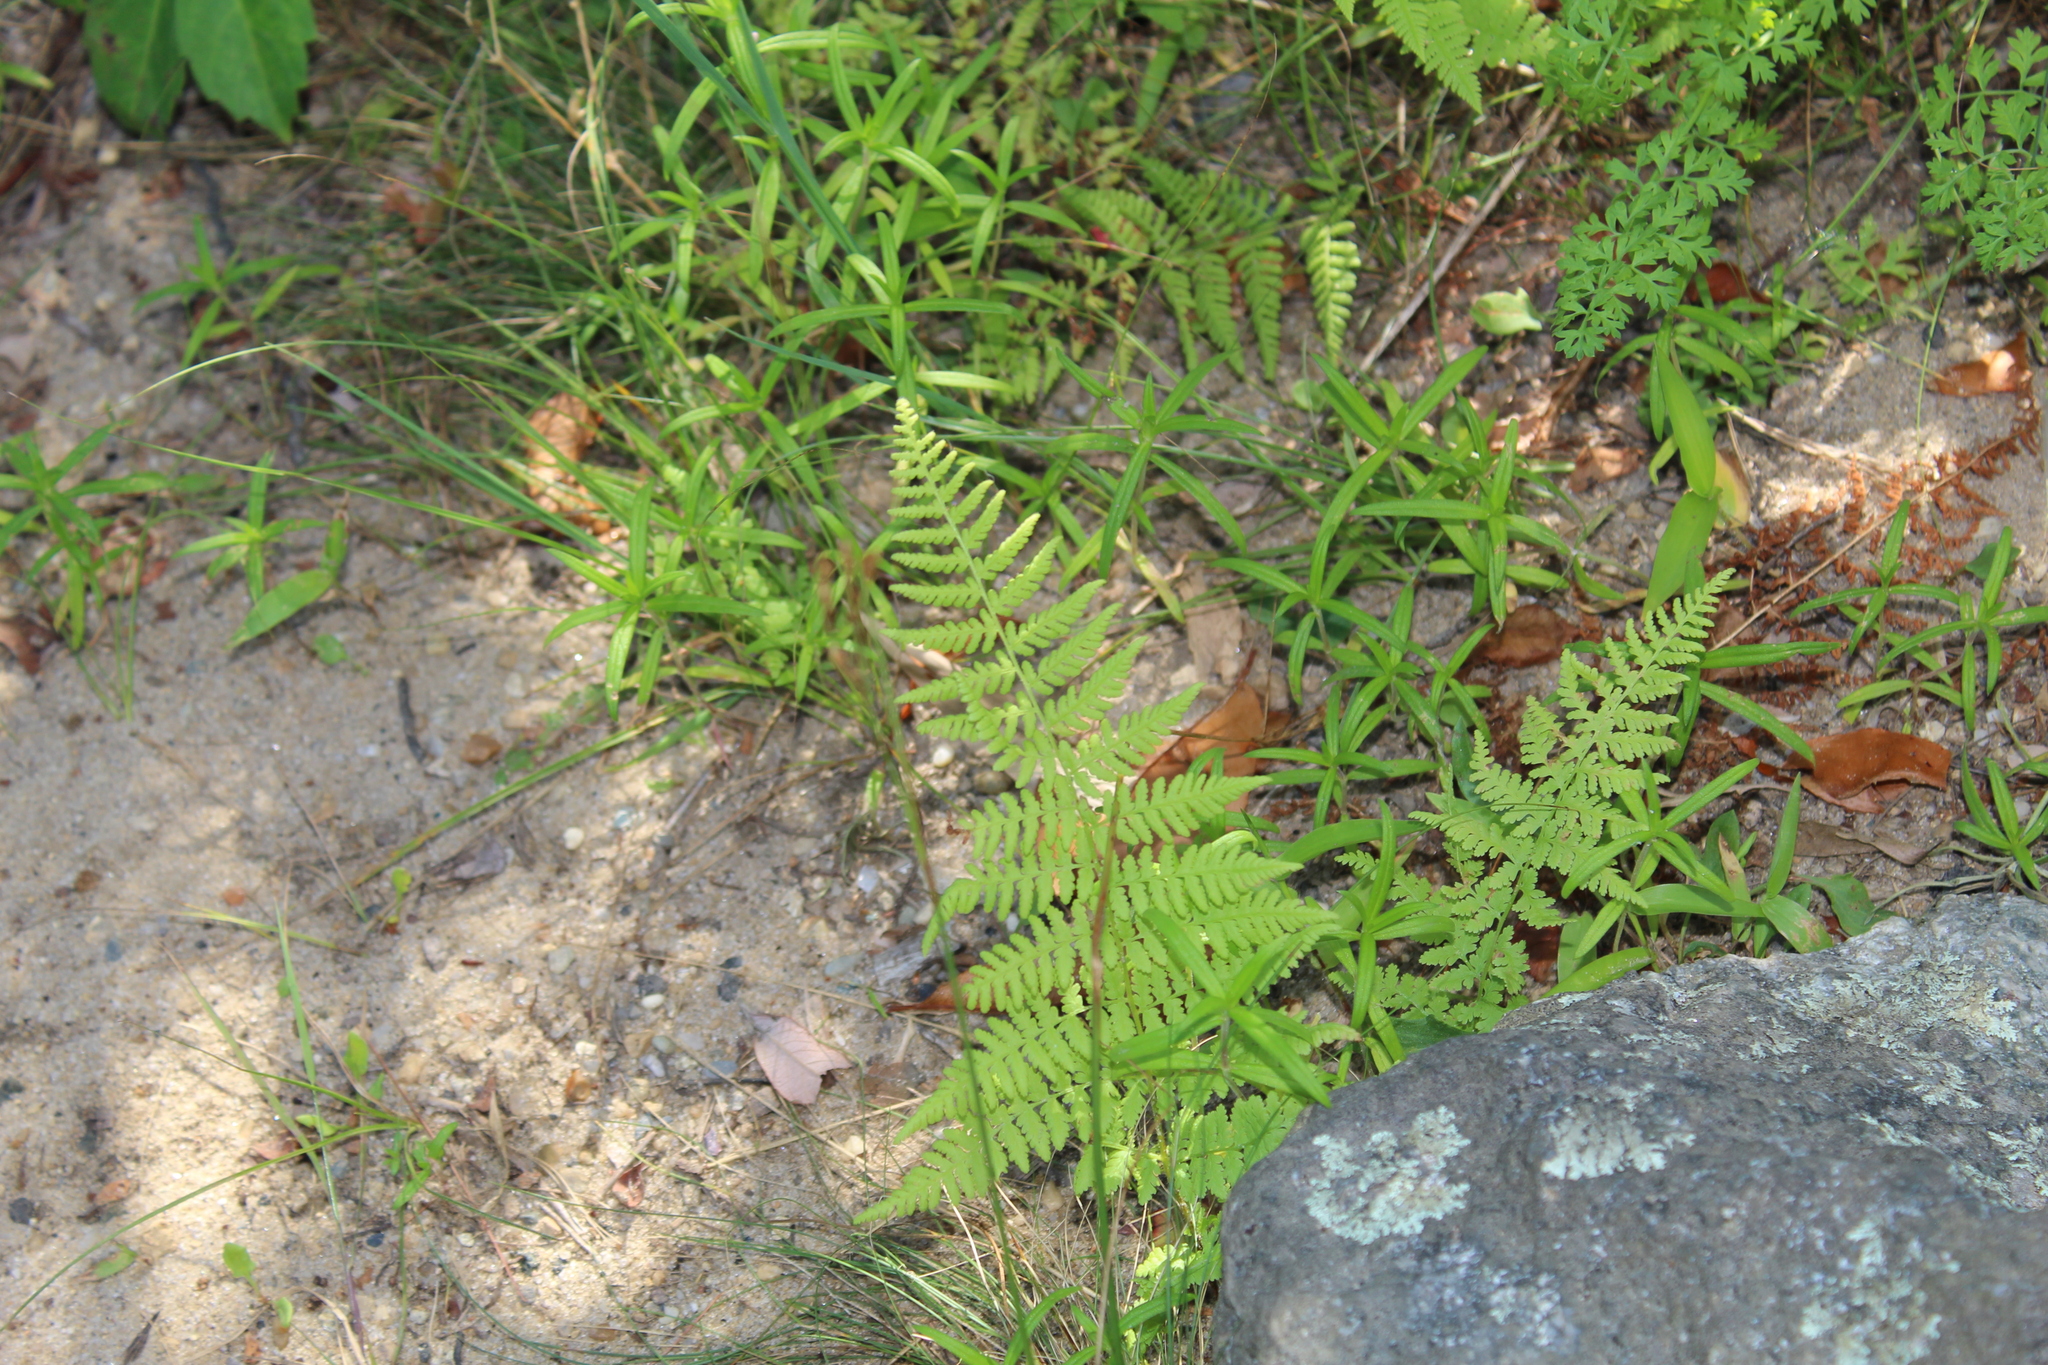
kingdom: Plantae
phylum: Tracheophyta
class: Polypodiopsida
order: Polypodiales
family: Dennstaedtiaceae
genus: Sitobolium
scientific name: Sitobolium punctilobum
